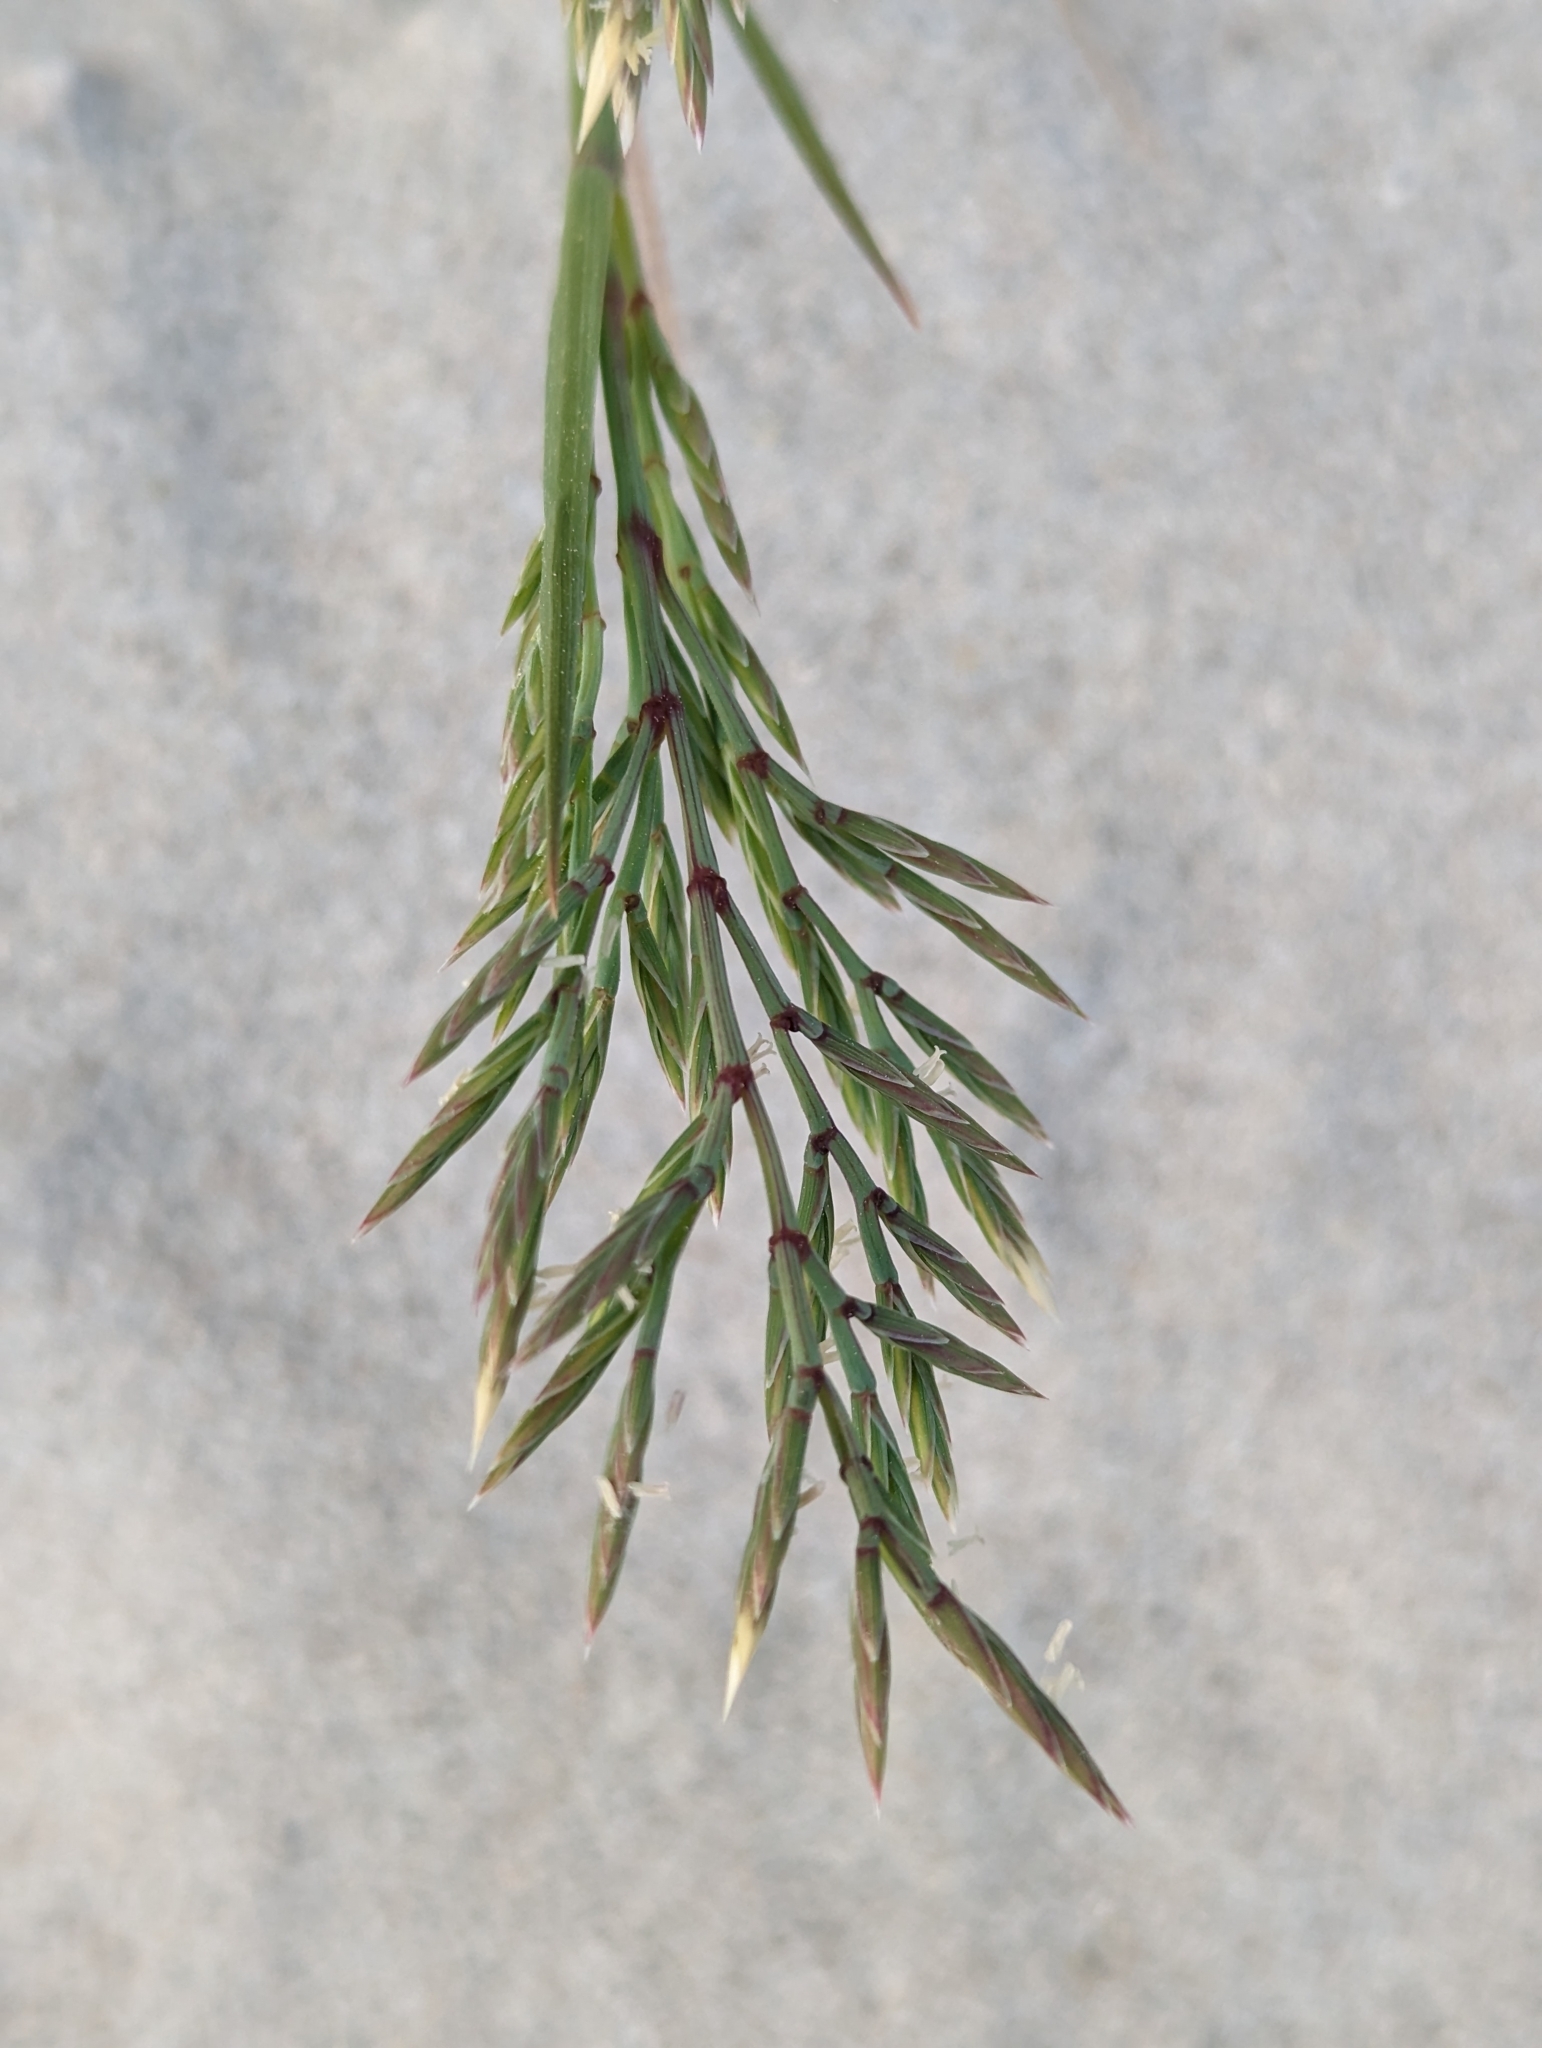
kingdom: Plantae
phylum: Tracheophyta
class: Liliopsida
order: Poales
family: Poaceae
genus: Cutandia
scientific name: Cutandia maritima
